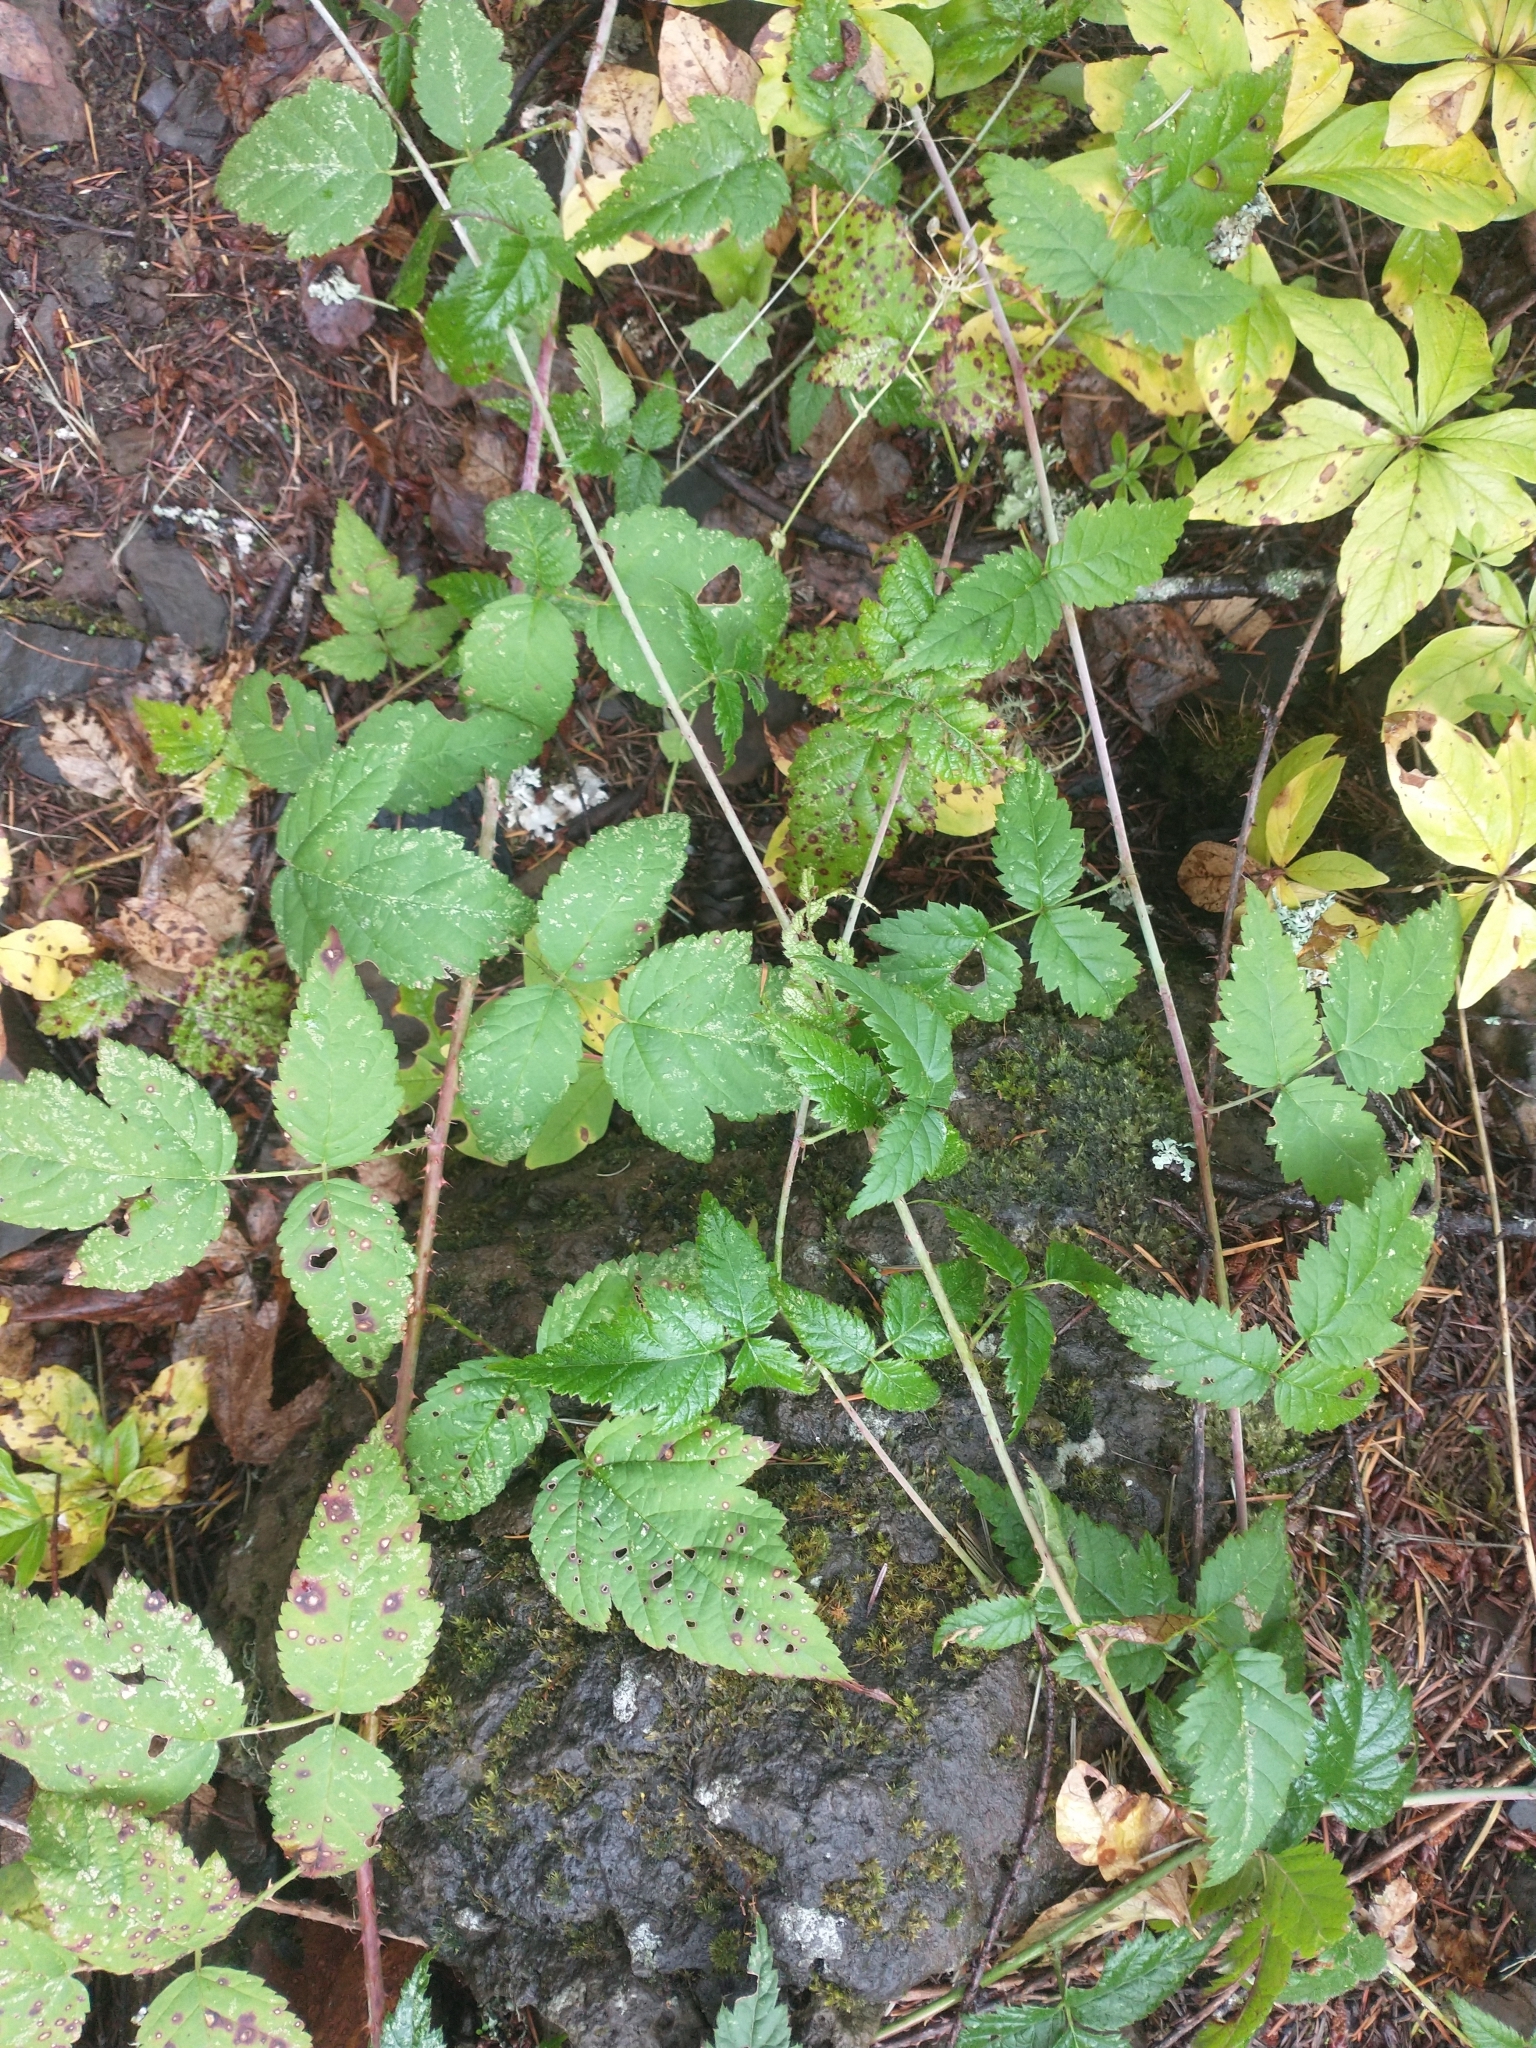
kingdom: Plantae
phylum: Tracheophyta
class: Magnoliopsida
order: Rosales
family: Rosaceae
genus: Rubus
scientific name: Rubus ursinus
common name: Pacific blackberry
